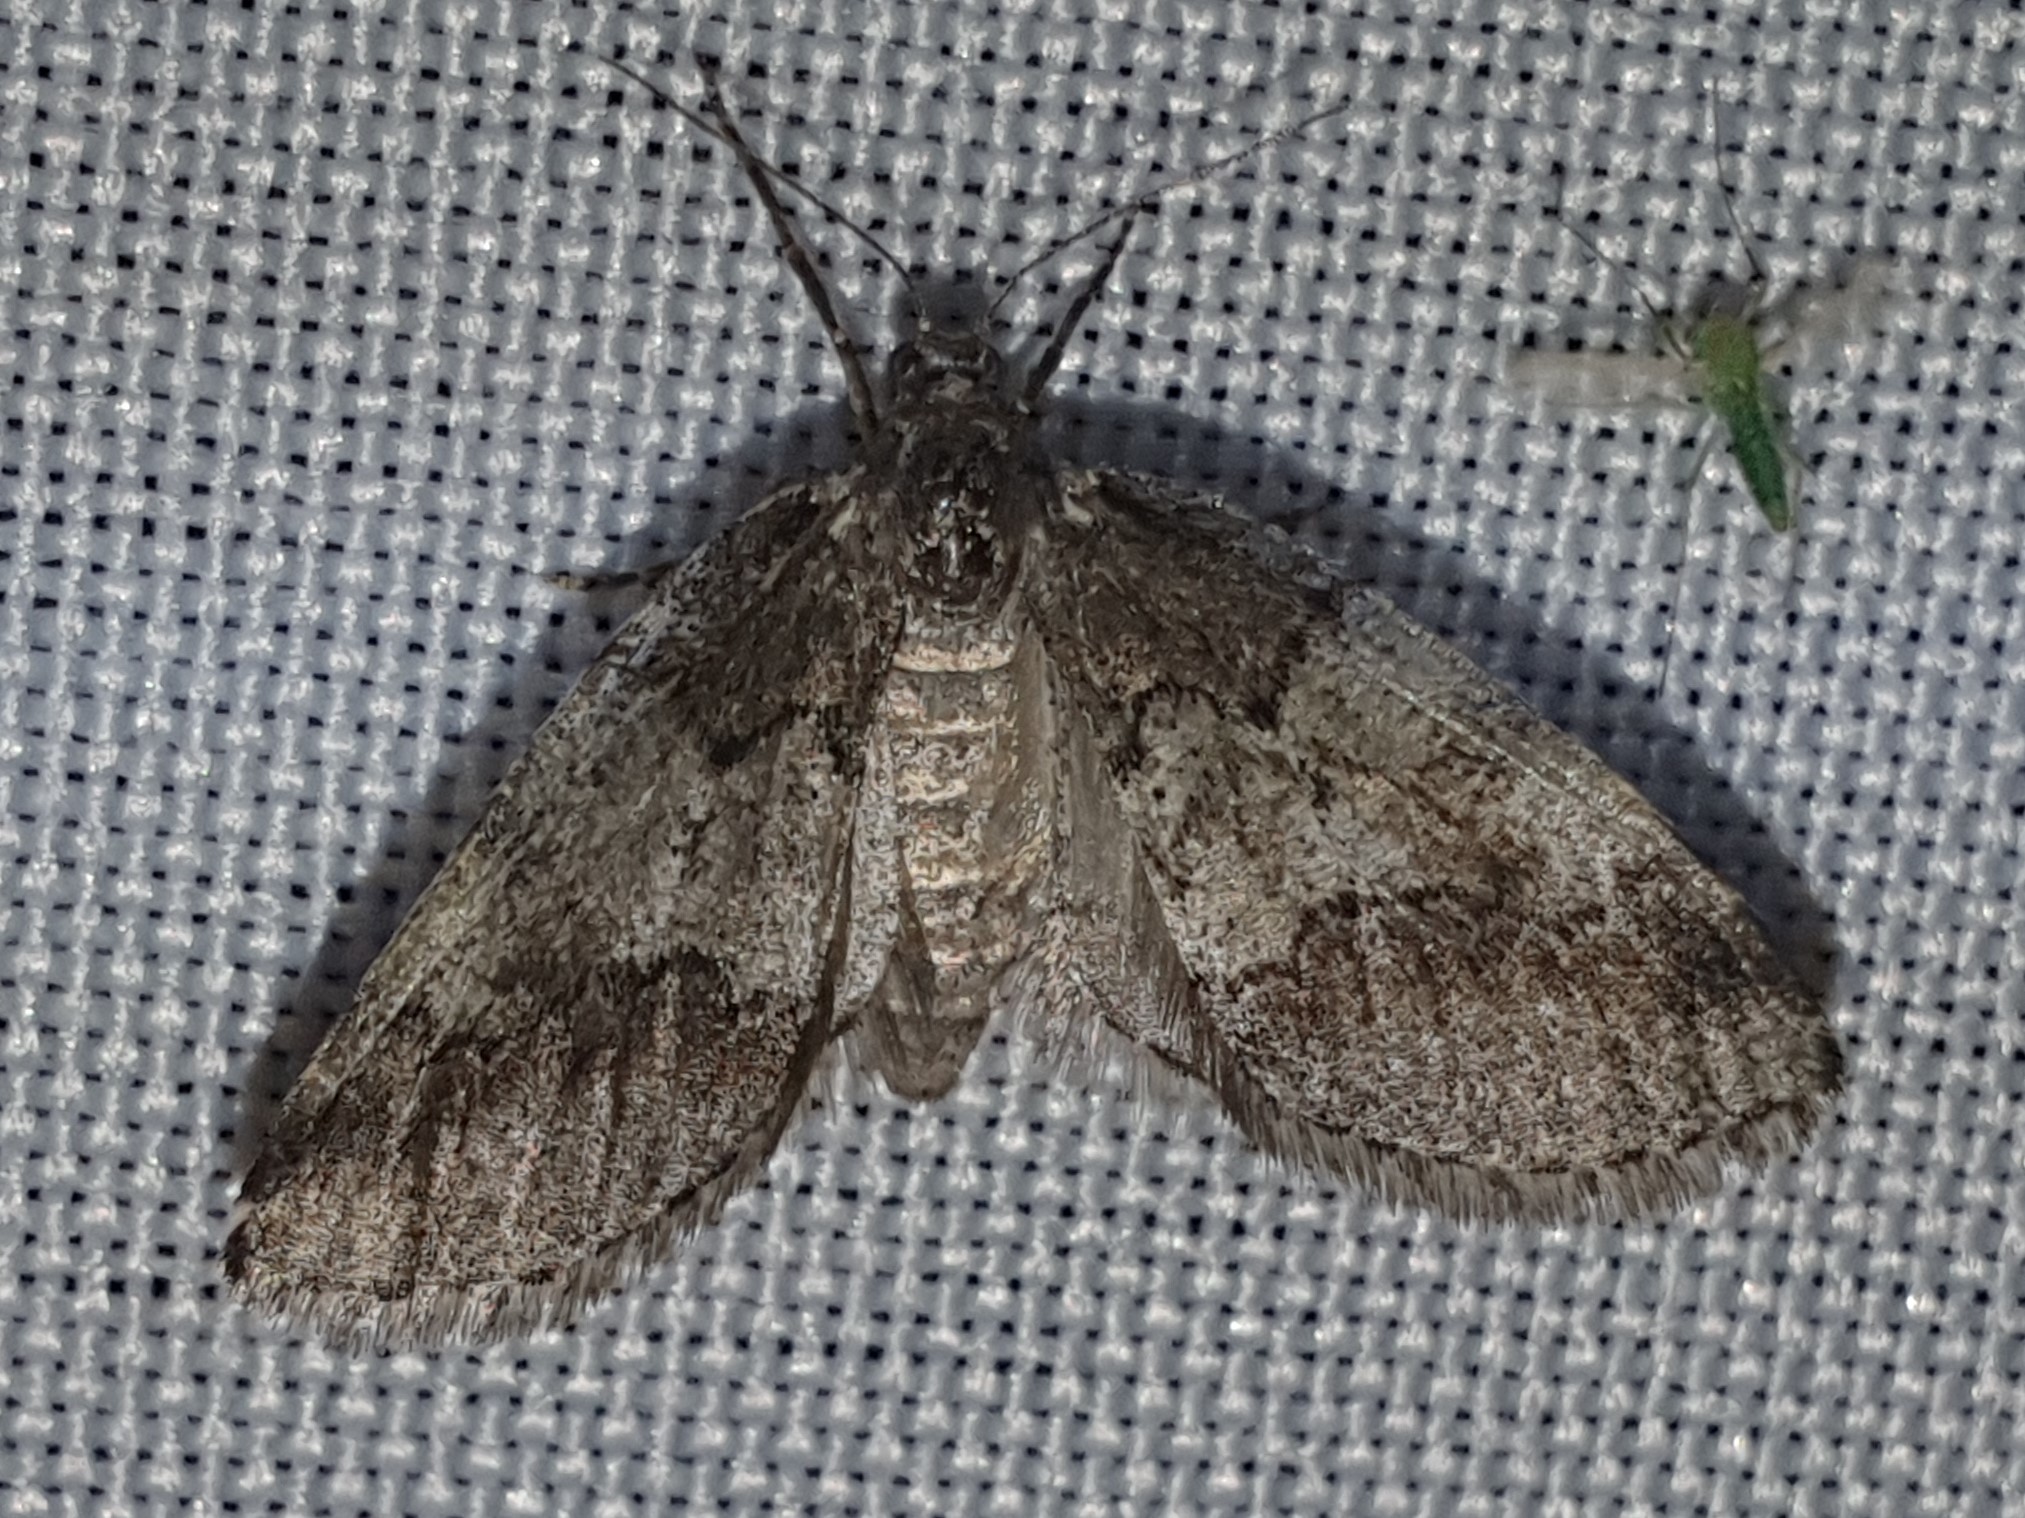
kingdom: Animalia
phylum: Arthropoda
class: Insecta
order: Lepidoptera
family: Geometridae
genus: Tephronia
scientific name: Tephronia lhommaria
